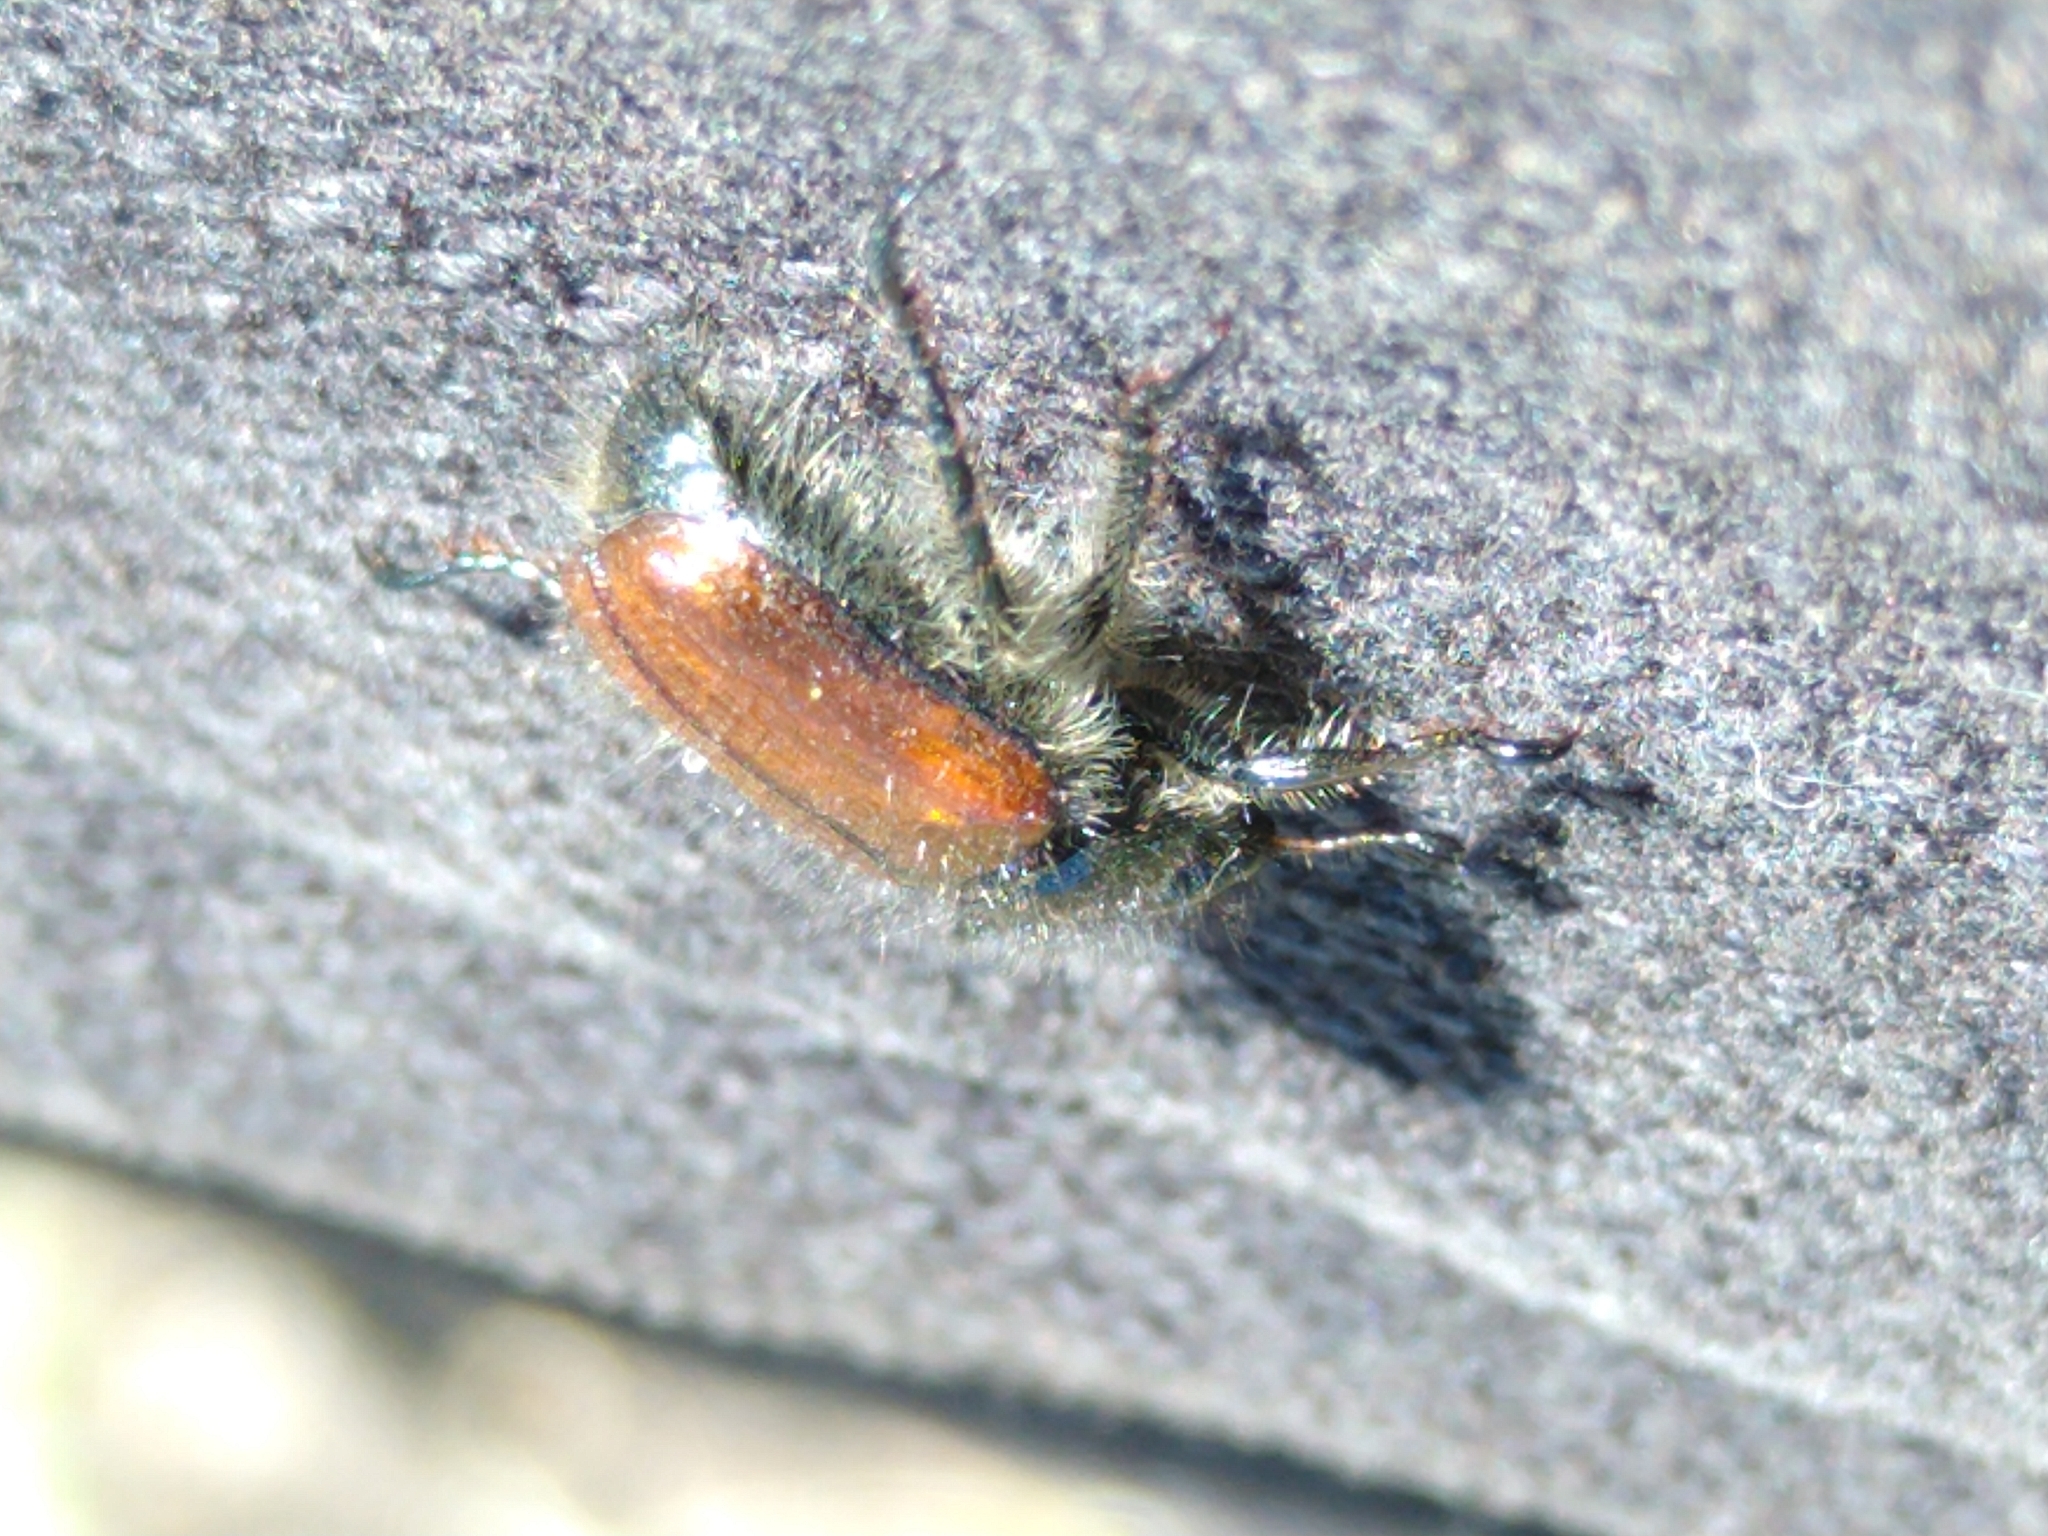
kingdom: Animalia
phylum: Arthropoda
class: Insecta
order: Coleoptera
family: Scarabaeidae
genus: Phyllopertha
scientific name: Phyllopertha horticola
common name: Garden chafer
